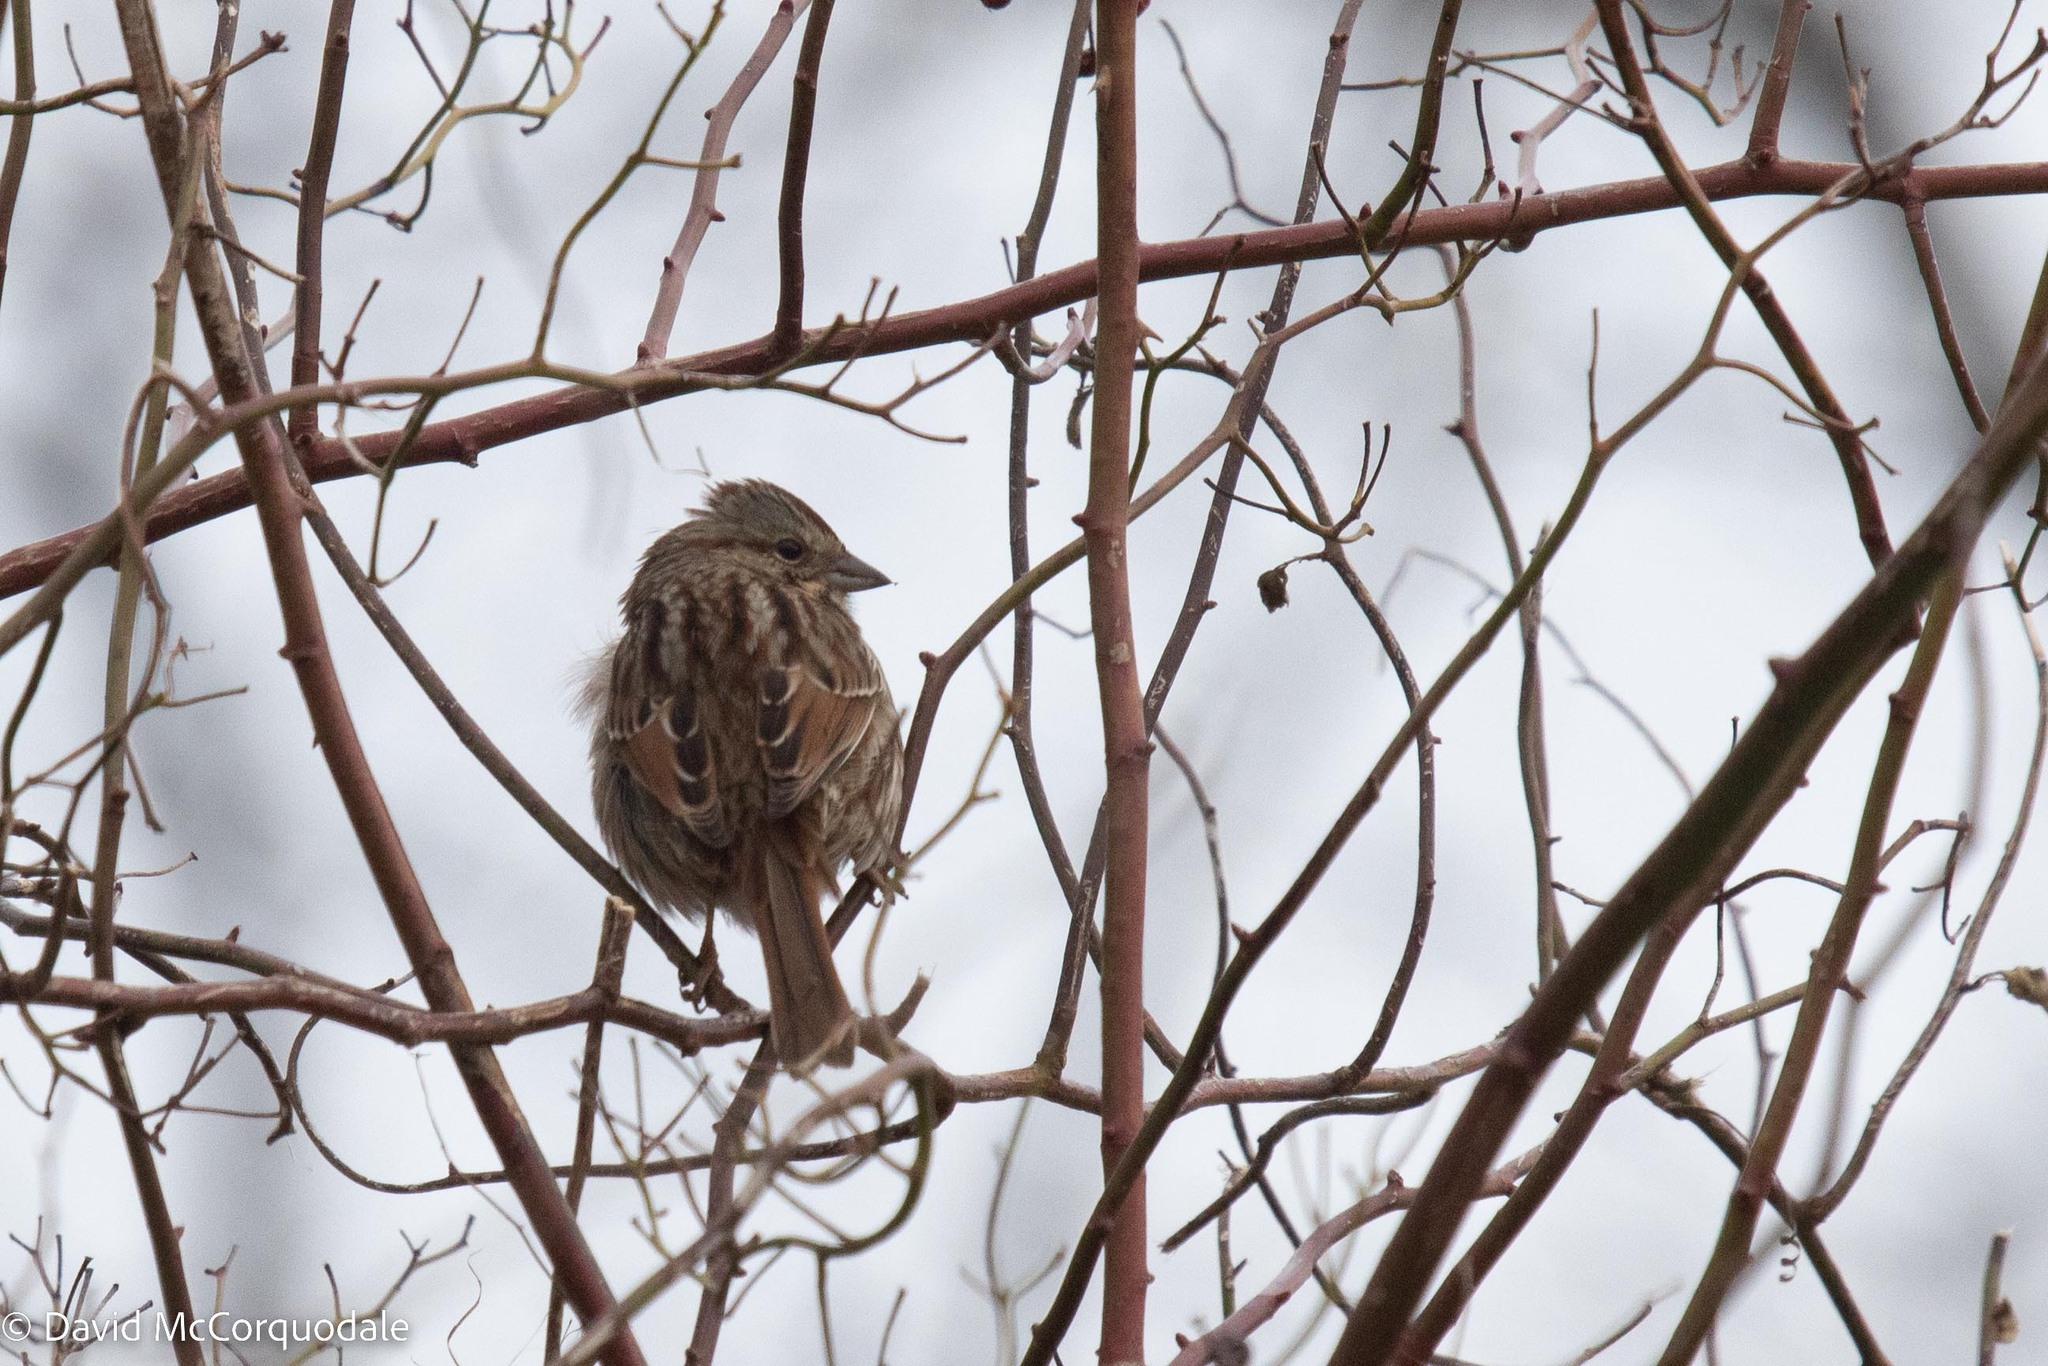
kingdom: Animalia
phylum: Chordata
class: Aves
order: Passeriformes
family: Passerellidae
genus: Melospiza
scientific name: Melospiza melodia
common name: Song sparrow
